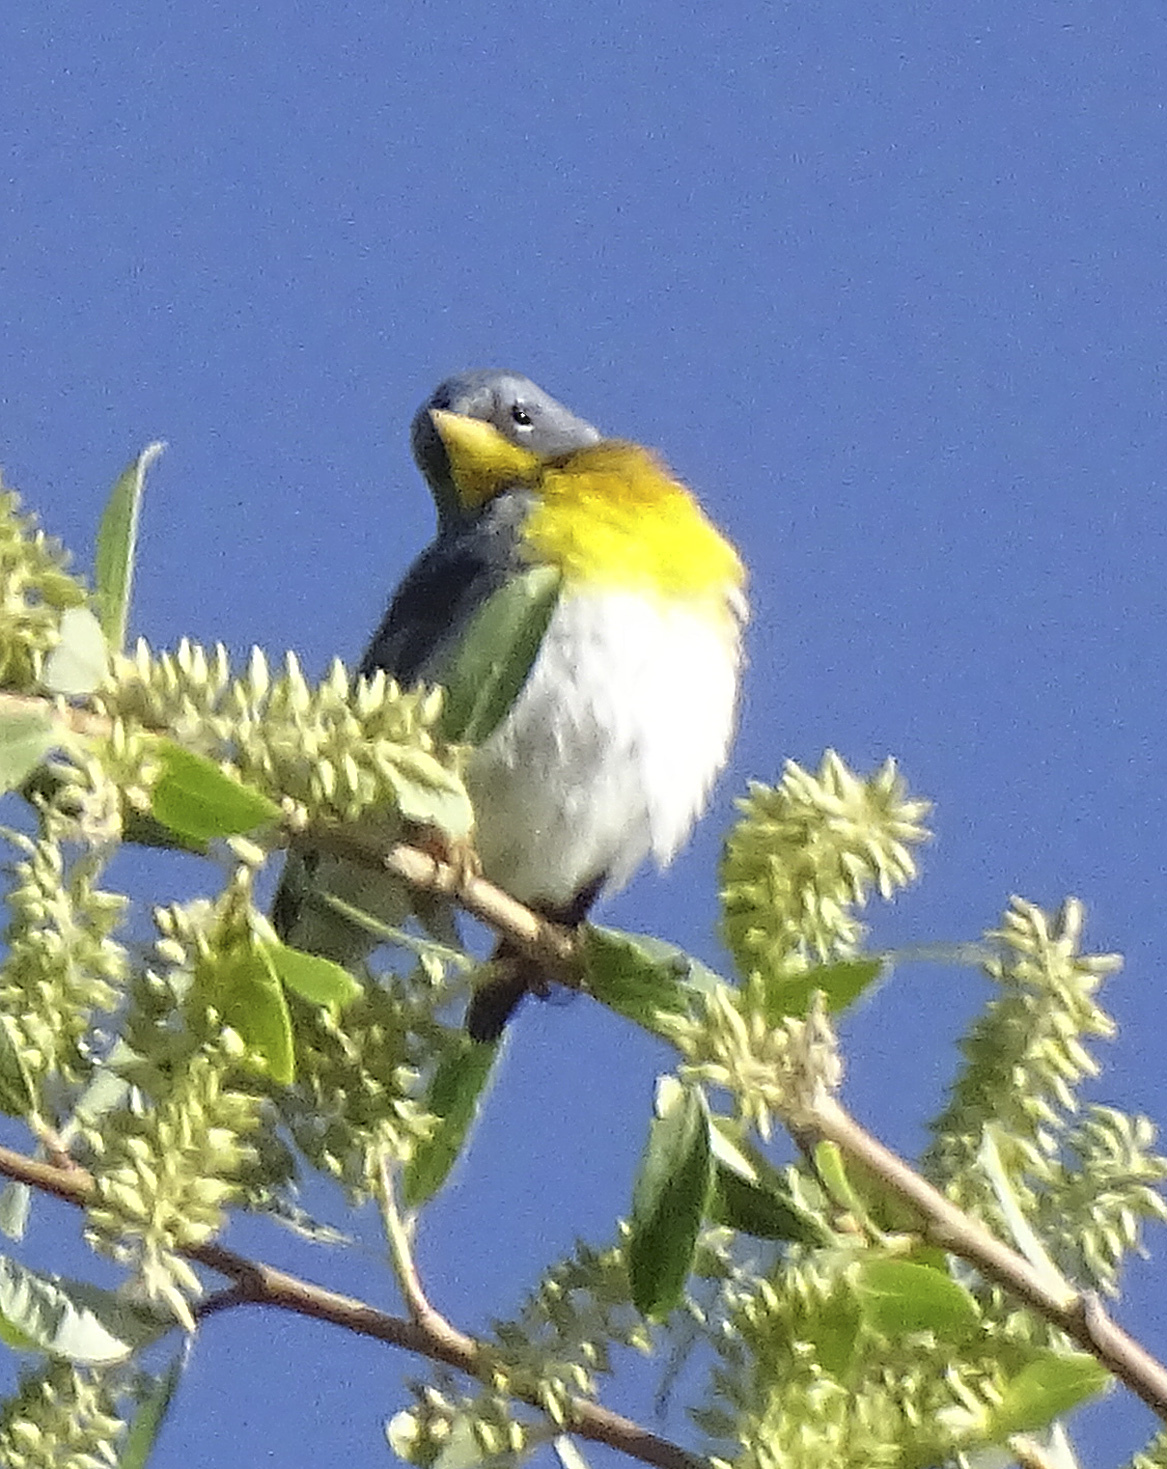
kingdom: Animalia
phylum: Chordata
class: Aves
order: Passeriformes
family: Parulidae
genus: Setophaga
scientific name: Setophaga americana
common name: Northern parula
